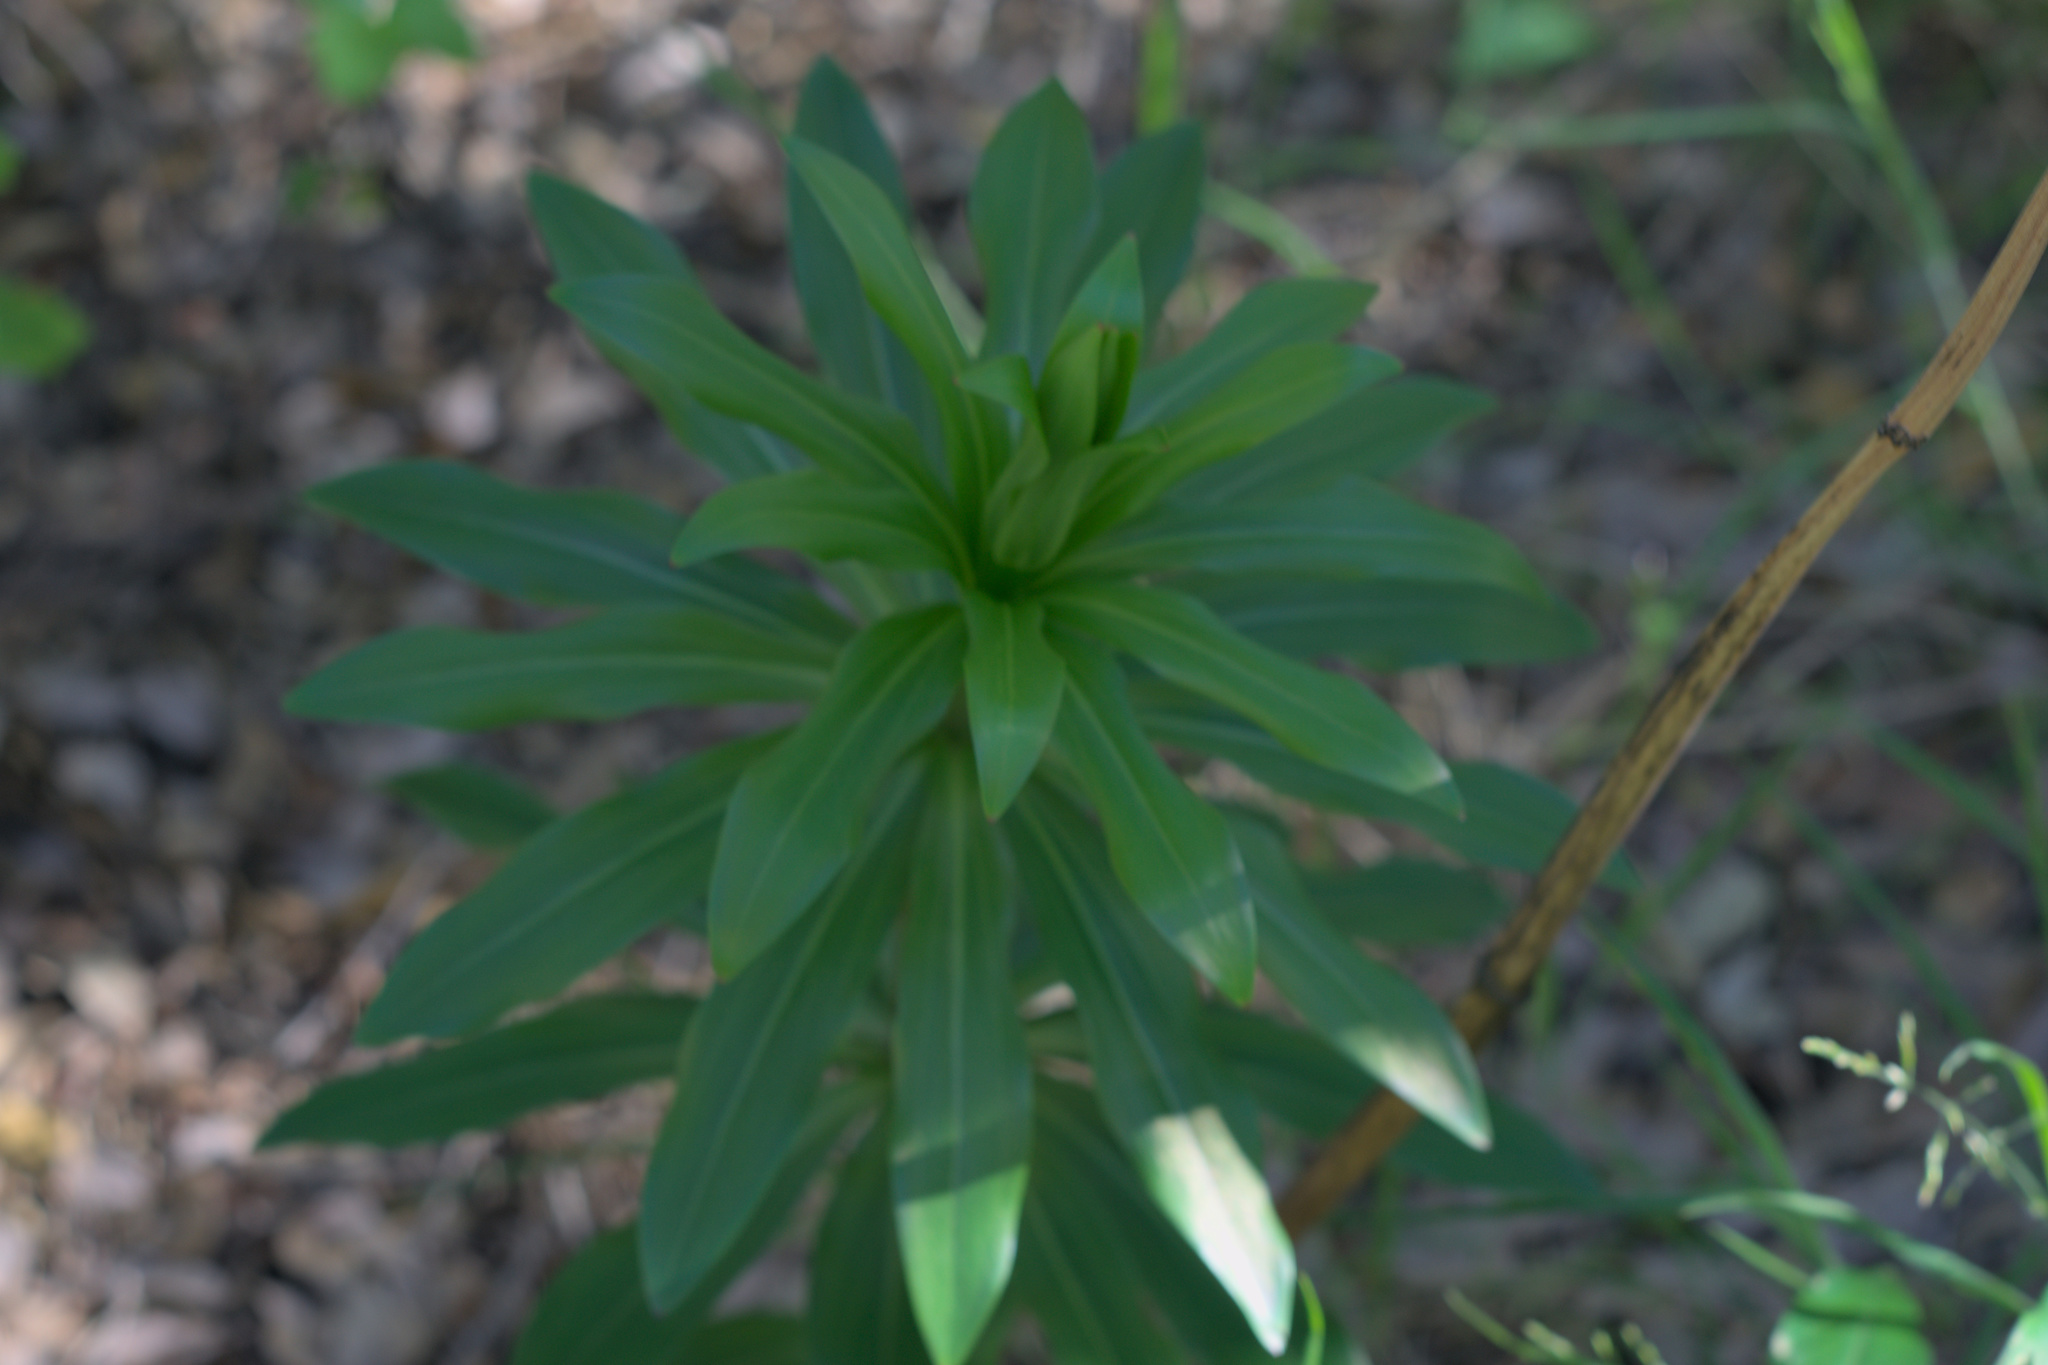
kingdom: Plantae
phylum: Tracheophyta
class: Liliopsida
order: Liliales
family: Liliaceae
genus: Lilium
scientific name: Lilium humboldtii
